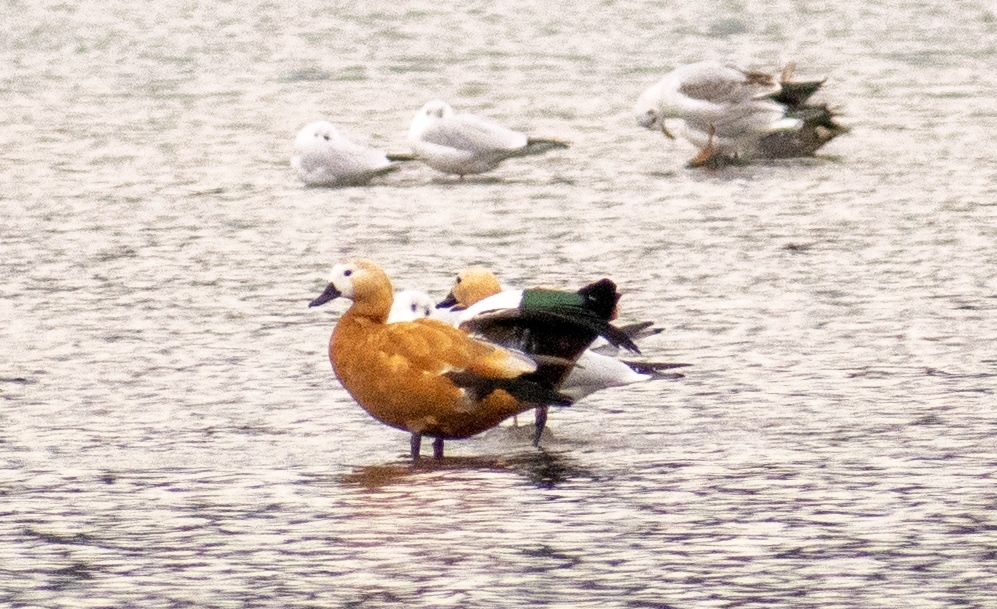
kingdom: Animalia
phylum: Chordata
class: Aves
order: Anseriformes
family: Anatidae
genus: Tadorna
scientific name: Tadorna ferruginea
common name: Ruddy shelduck
